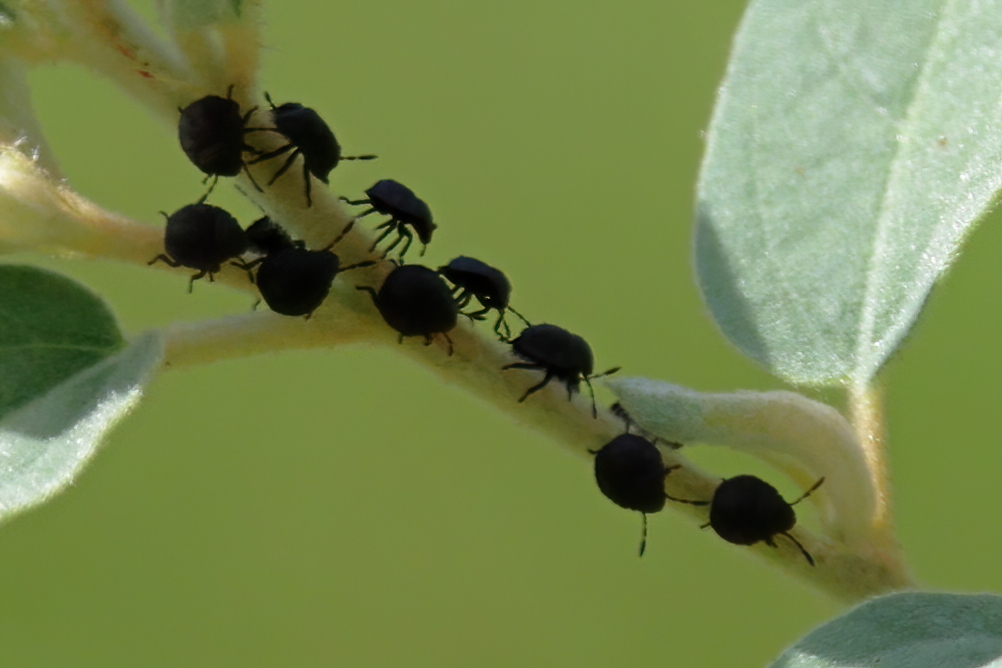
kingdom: Animalia
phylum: Arthropoda
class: Insecta
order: Hemiptera
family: Scutelleridae
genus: Orsilochides
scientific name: Orsilochides guttata
